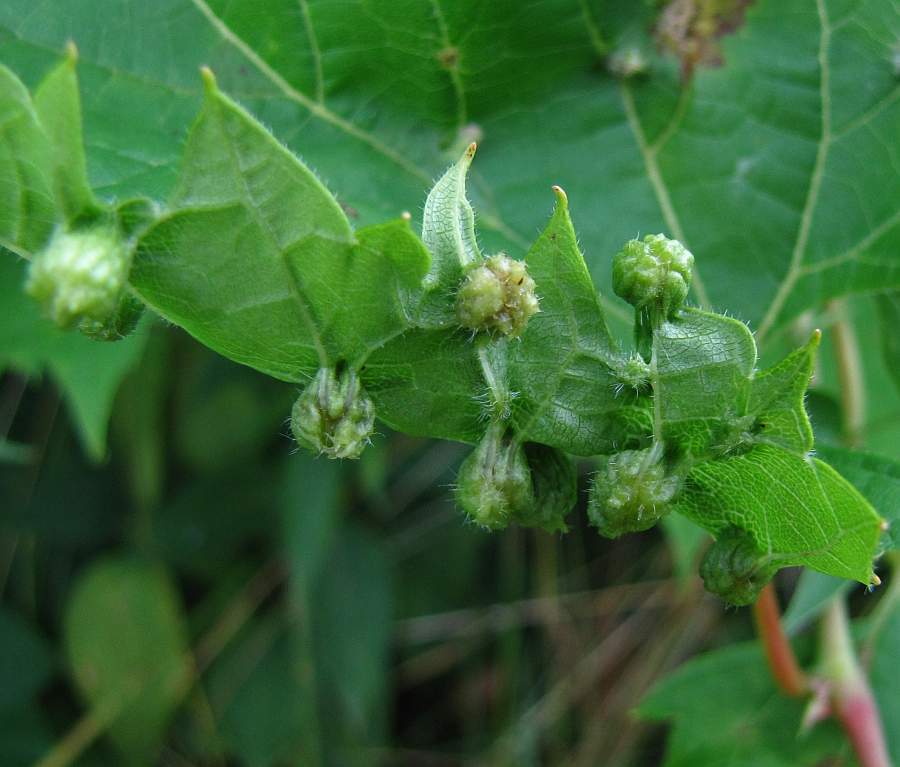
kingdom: Animalia
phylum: Arthropoda
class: Insecta
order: Hemiptera
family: Phylloxeridae
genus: Daktulosphaira
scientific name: Daktulosphaira vitifoliae
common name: Grape phylloxera
